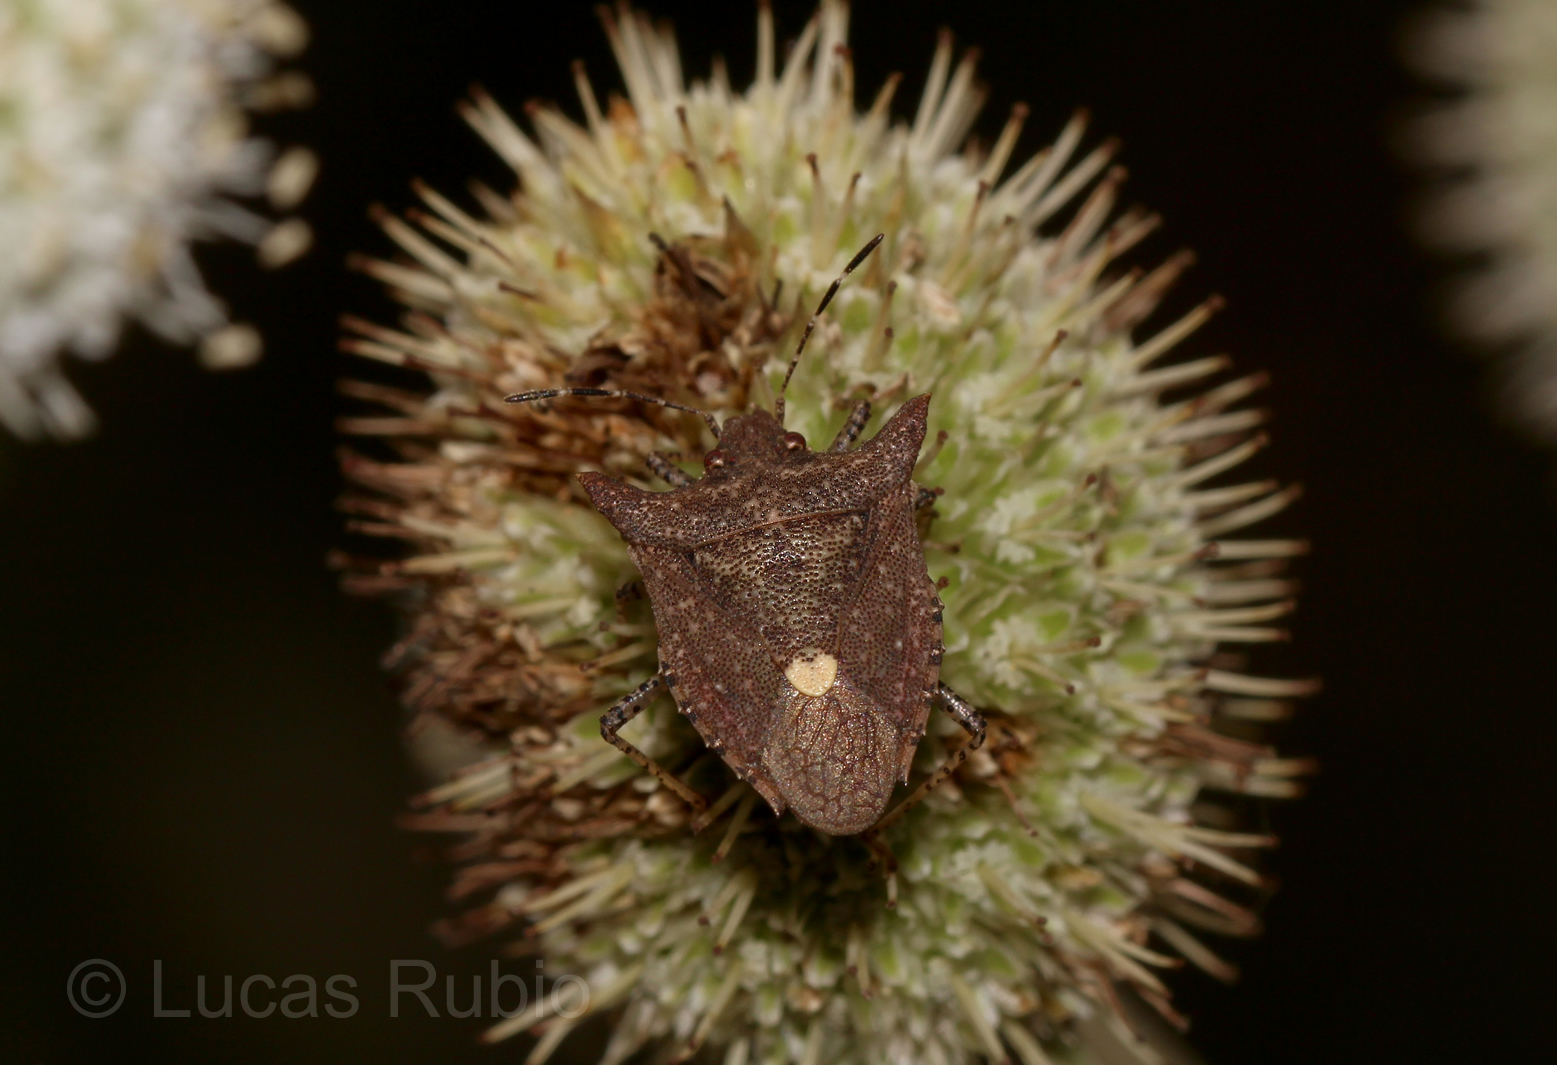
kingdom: Animalia
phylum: Arthropoda
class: Insecta
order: Hemiptera
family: Pentatomidae
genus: Euschistus
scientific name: Euschistus picticornis
